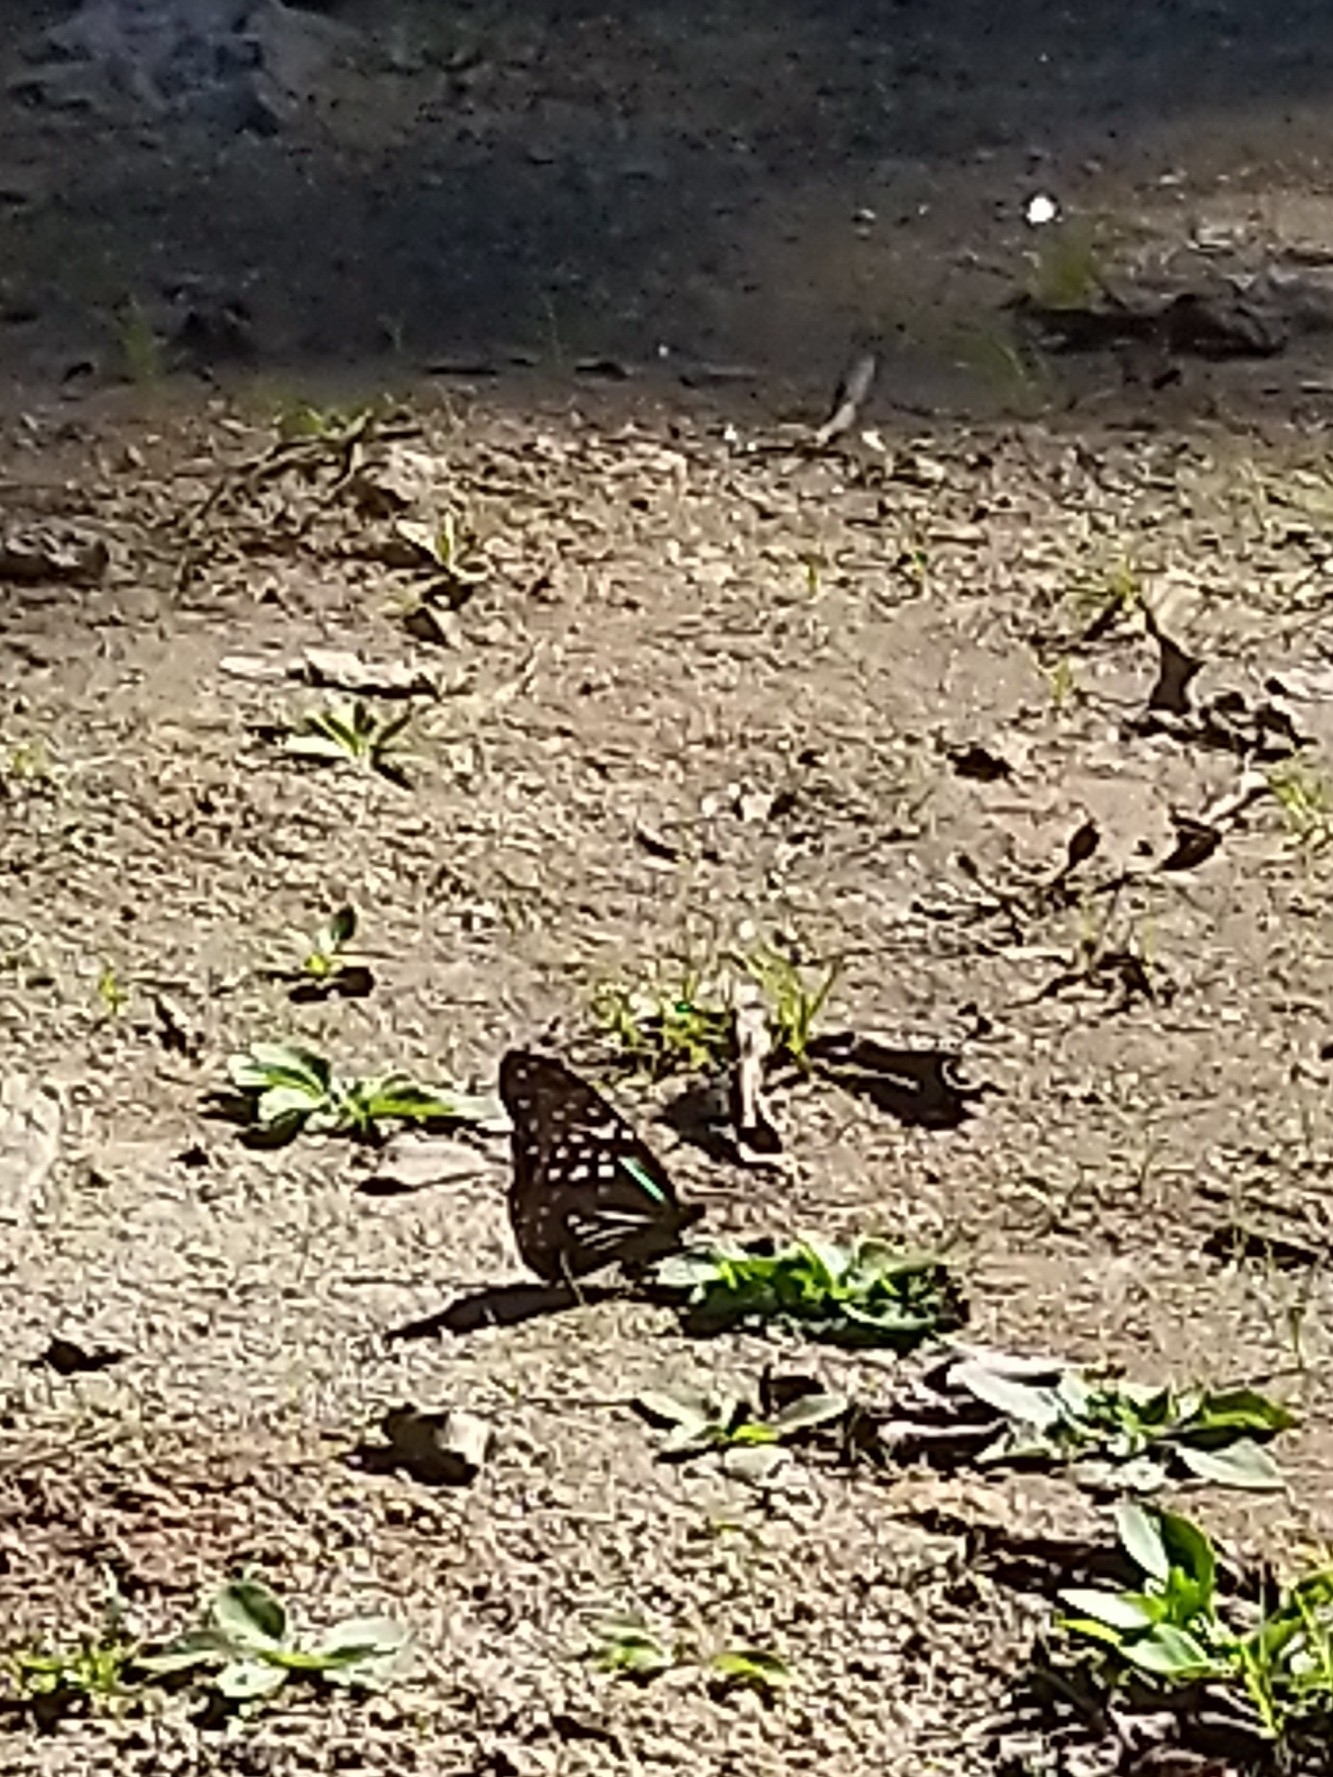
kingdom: Animalia
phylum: Arthropoda
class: Insecta
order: Lepidoptera
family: Nymphalidae
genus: Parantica
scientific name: Parantica nilgiriensis
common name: Nilgiri tiger
